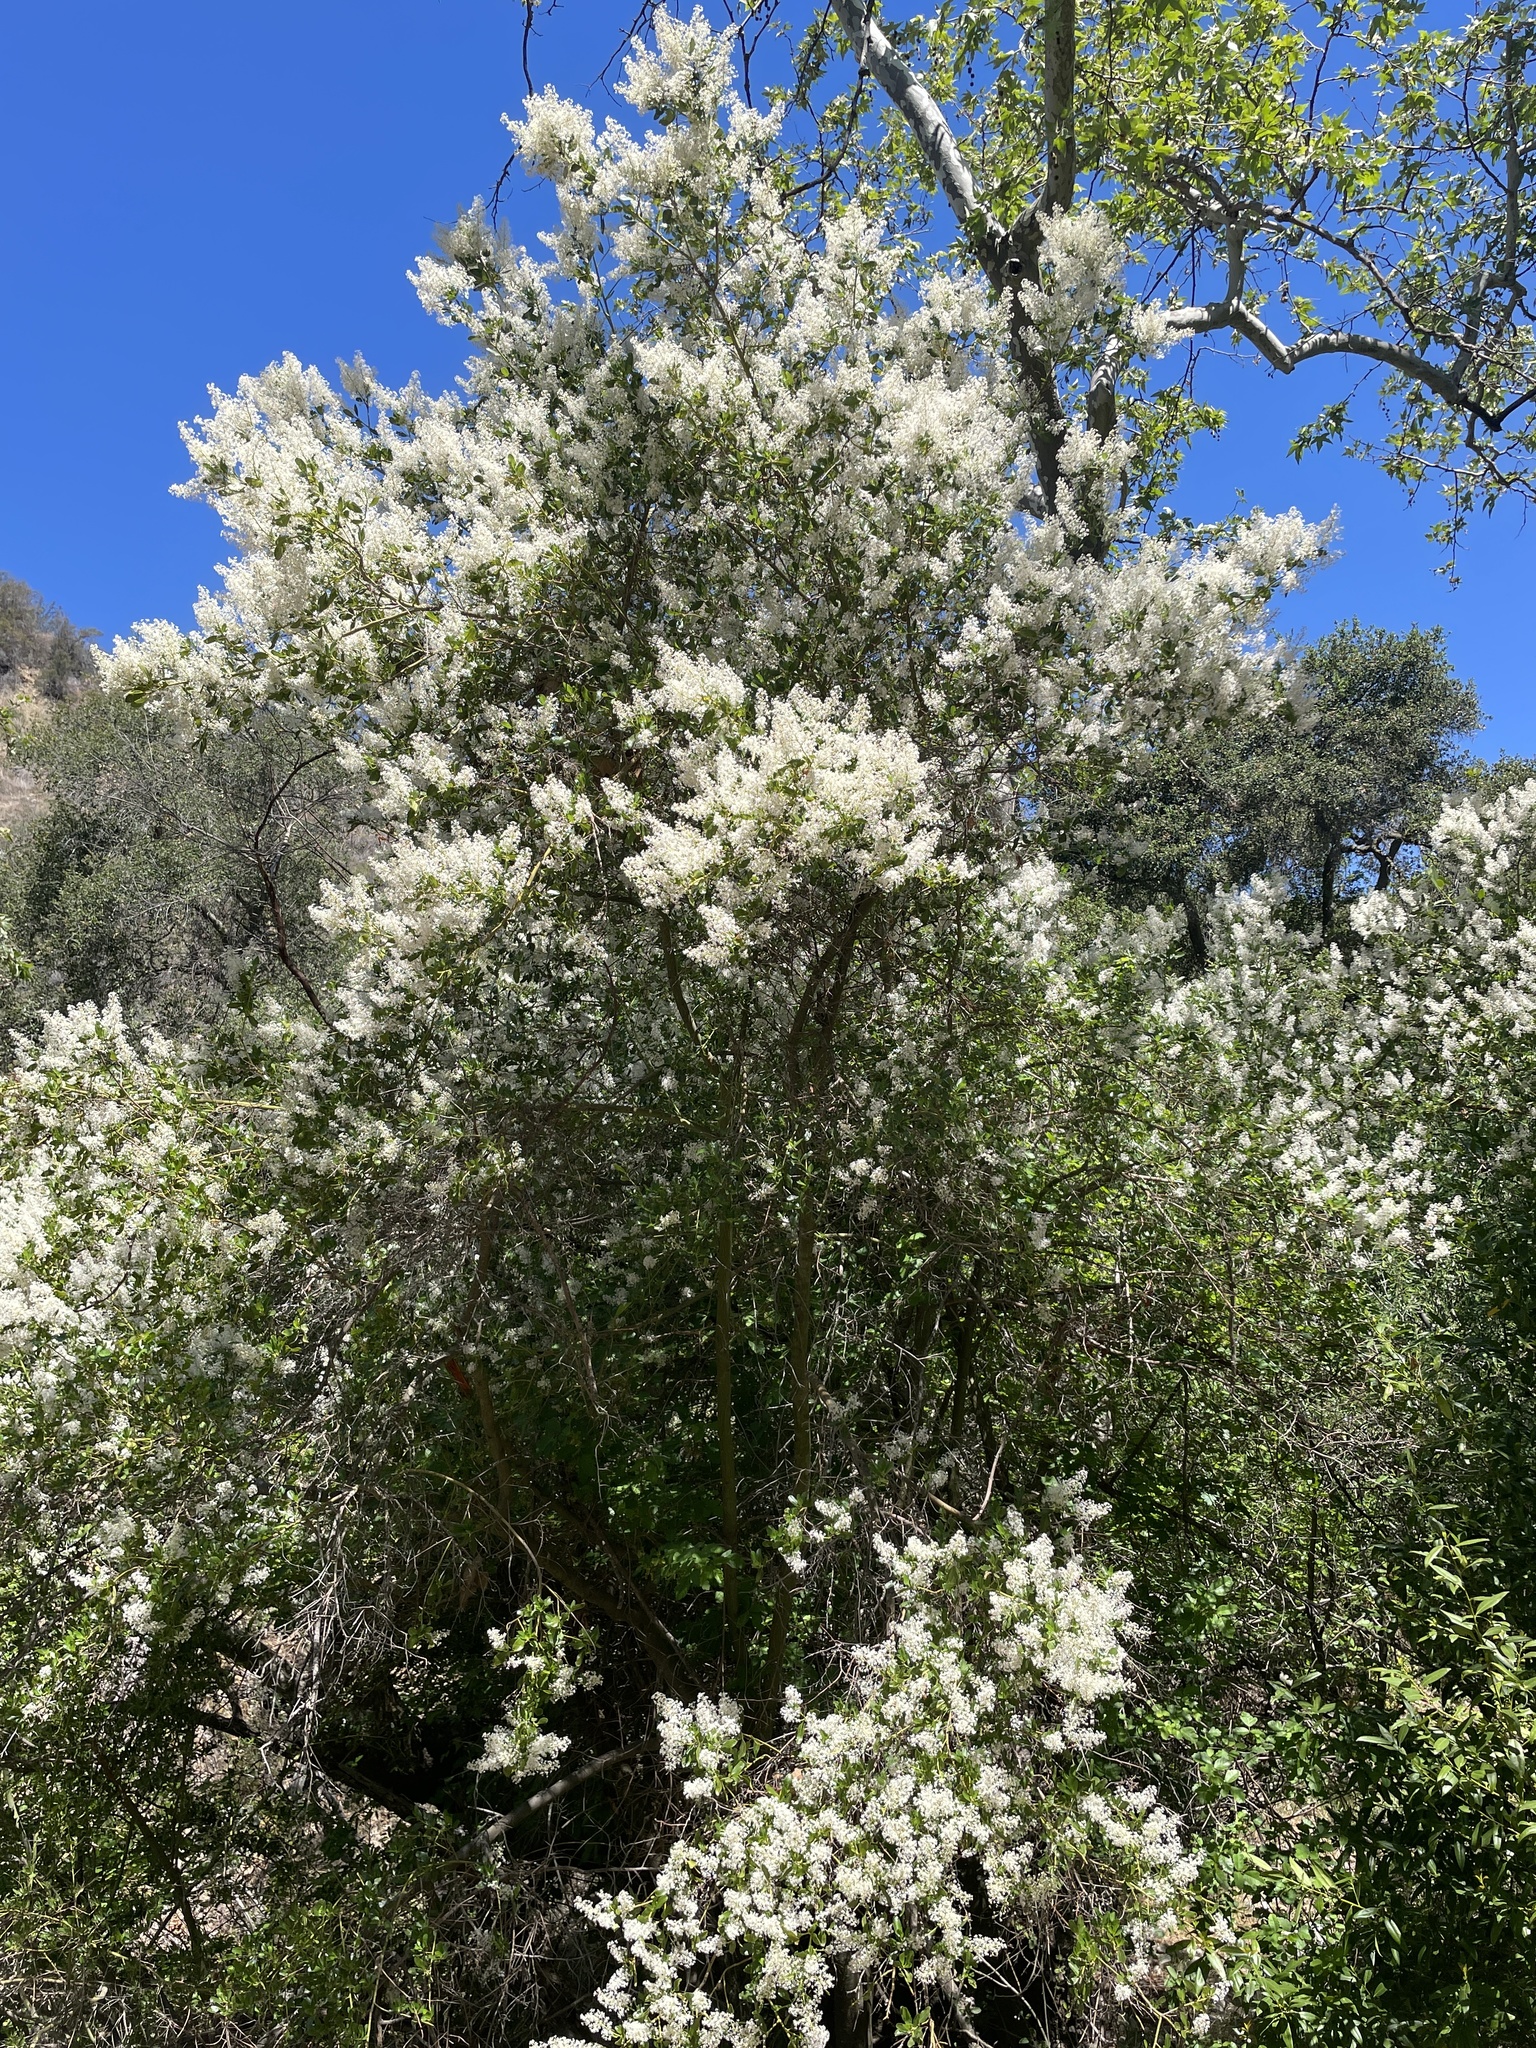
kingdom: Plantae
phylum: Tracheophyta
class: Magnoliopsida
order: Rosales
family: Rhamnaceae
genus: Ceanothus
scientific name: Ceanothus spinosus
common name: Greenbark whitethorn
